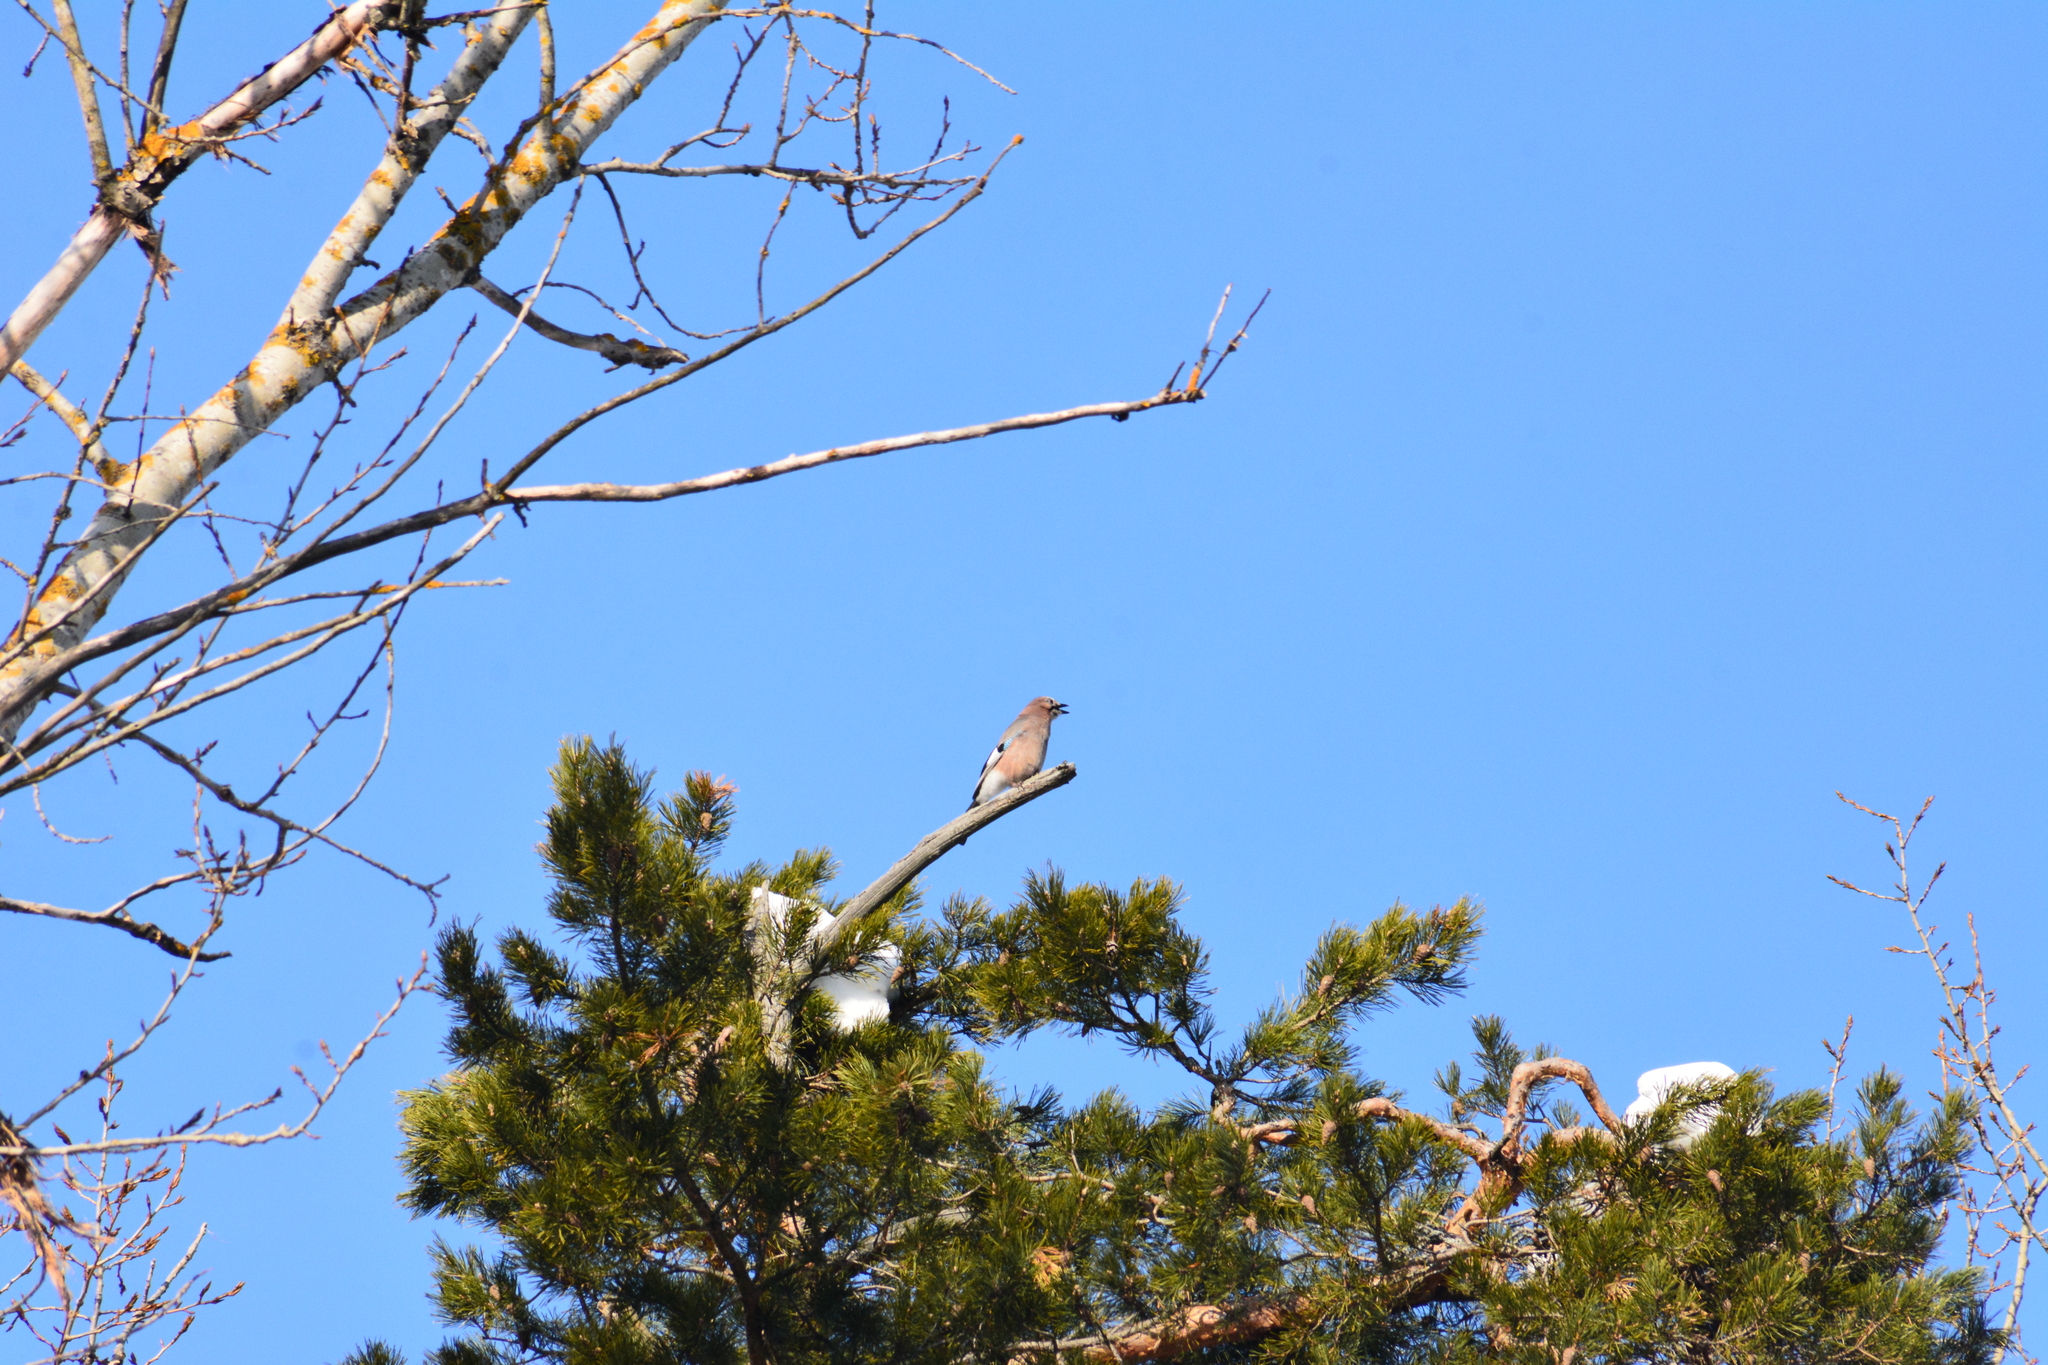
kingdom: Animalia
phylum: Chordata
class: Aves
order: Passeriformes
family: Corvidae
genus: Garrulus
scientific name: Garrulus glandarius
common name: Eurasian jay
